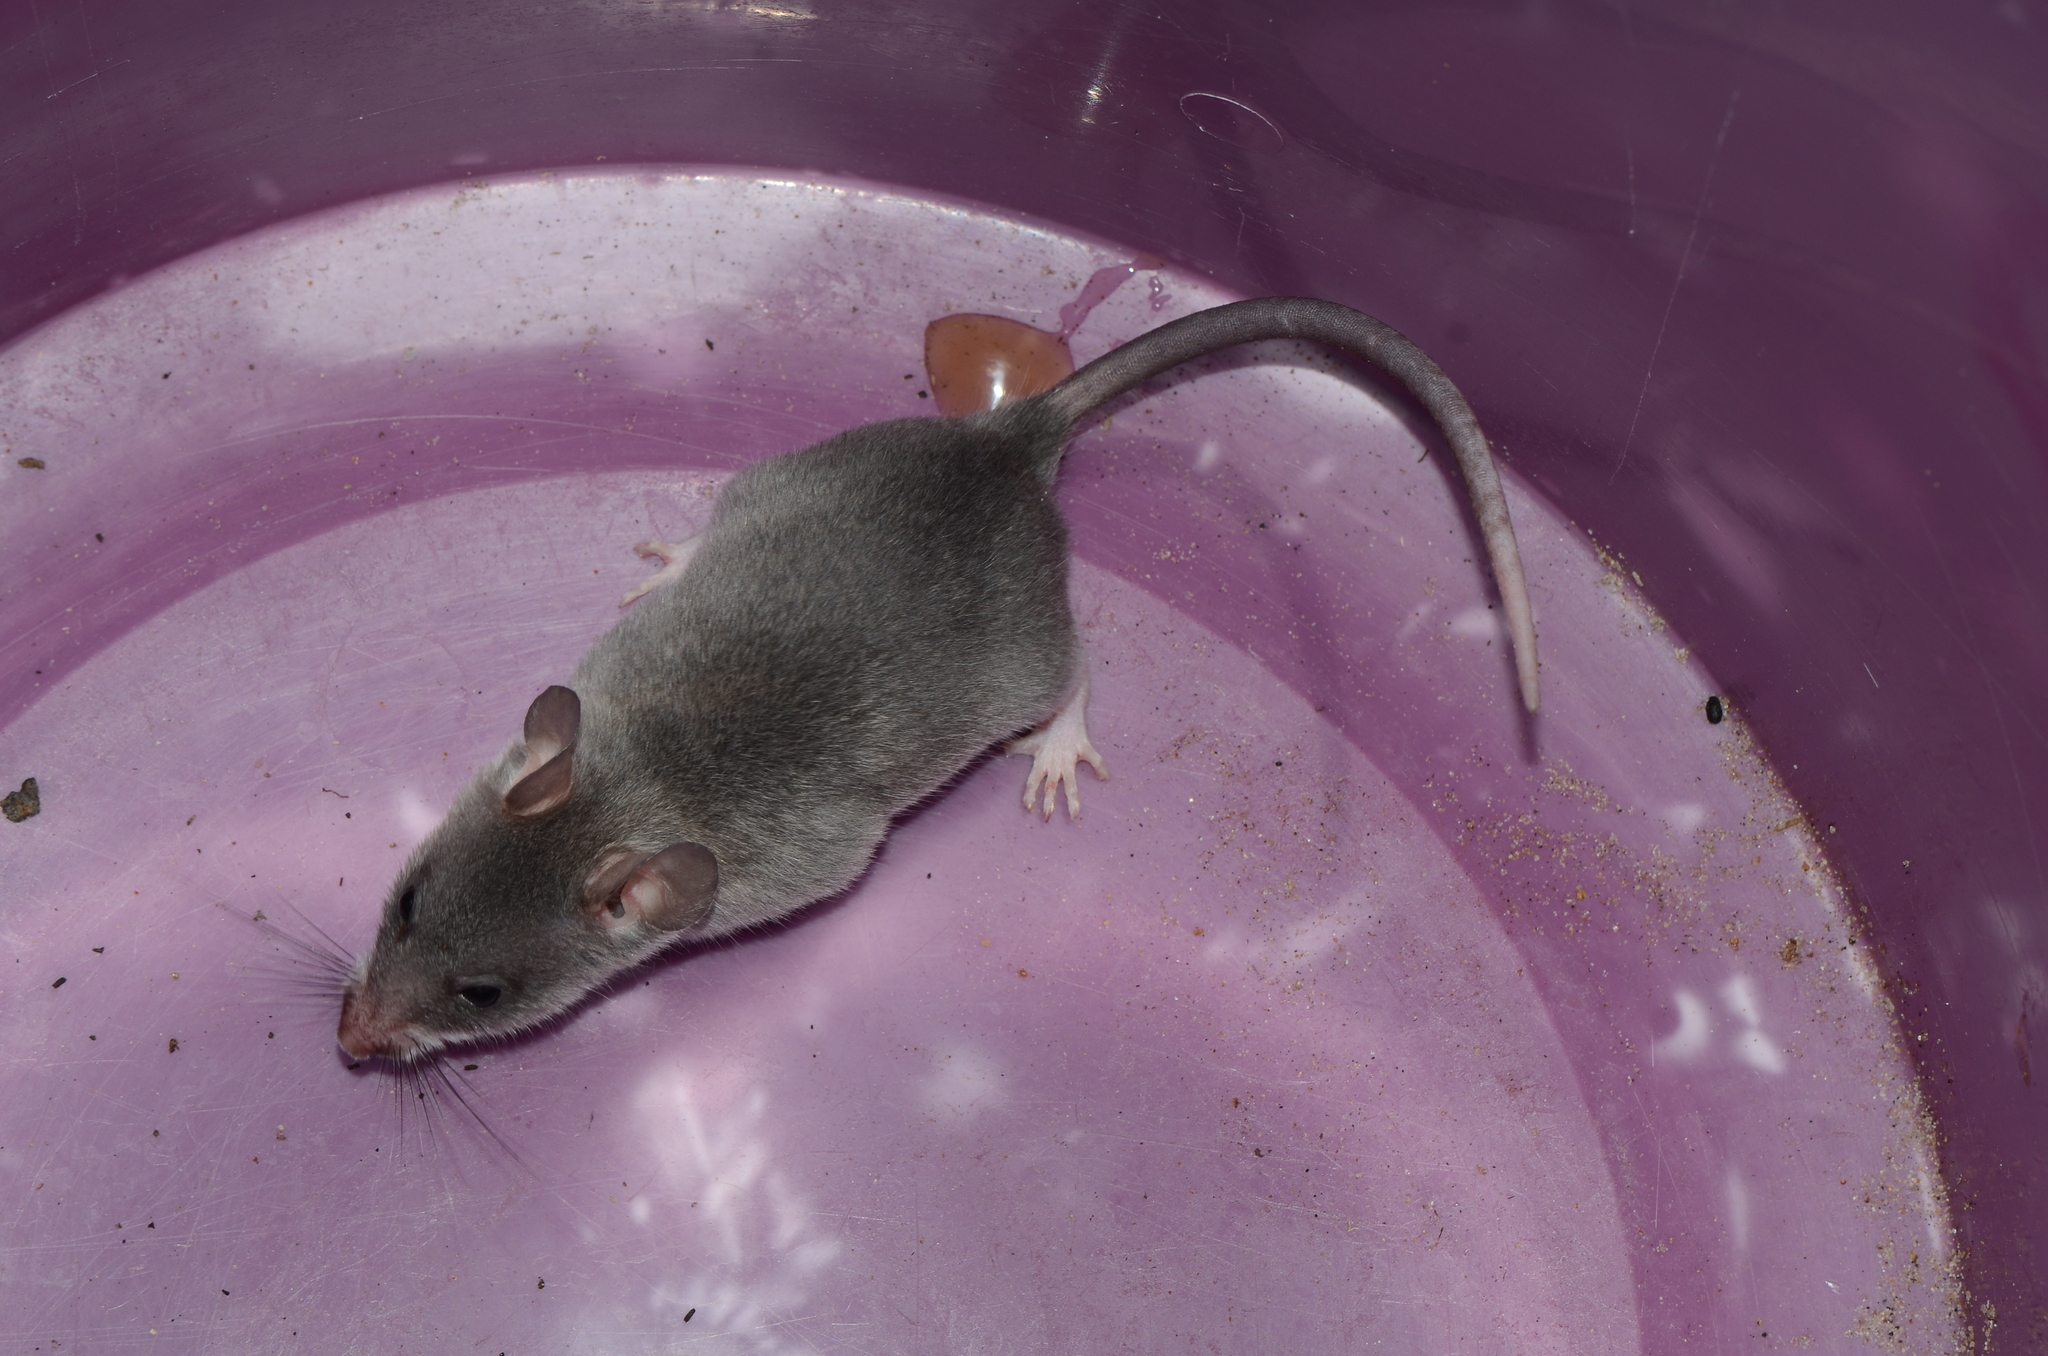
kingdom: Animalia
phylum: Chordata
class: Mammalia
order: Rodentia
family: Nesomyidae
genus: Beamys
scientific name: Beamys hindei
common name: Lesser hamster-rat, long-tailed pouched rat
